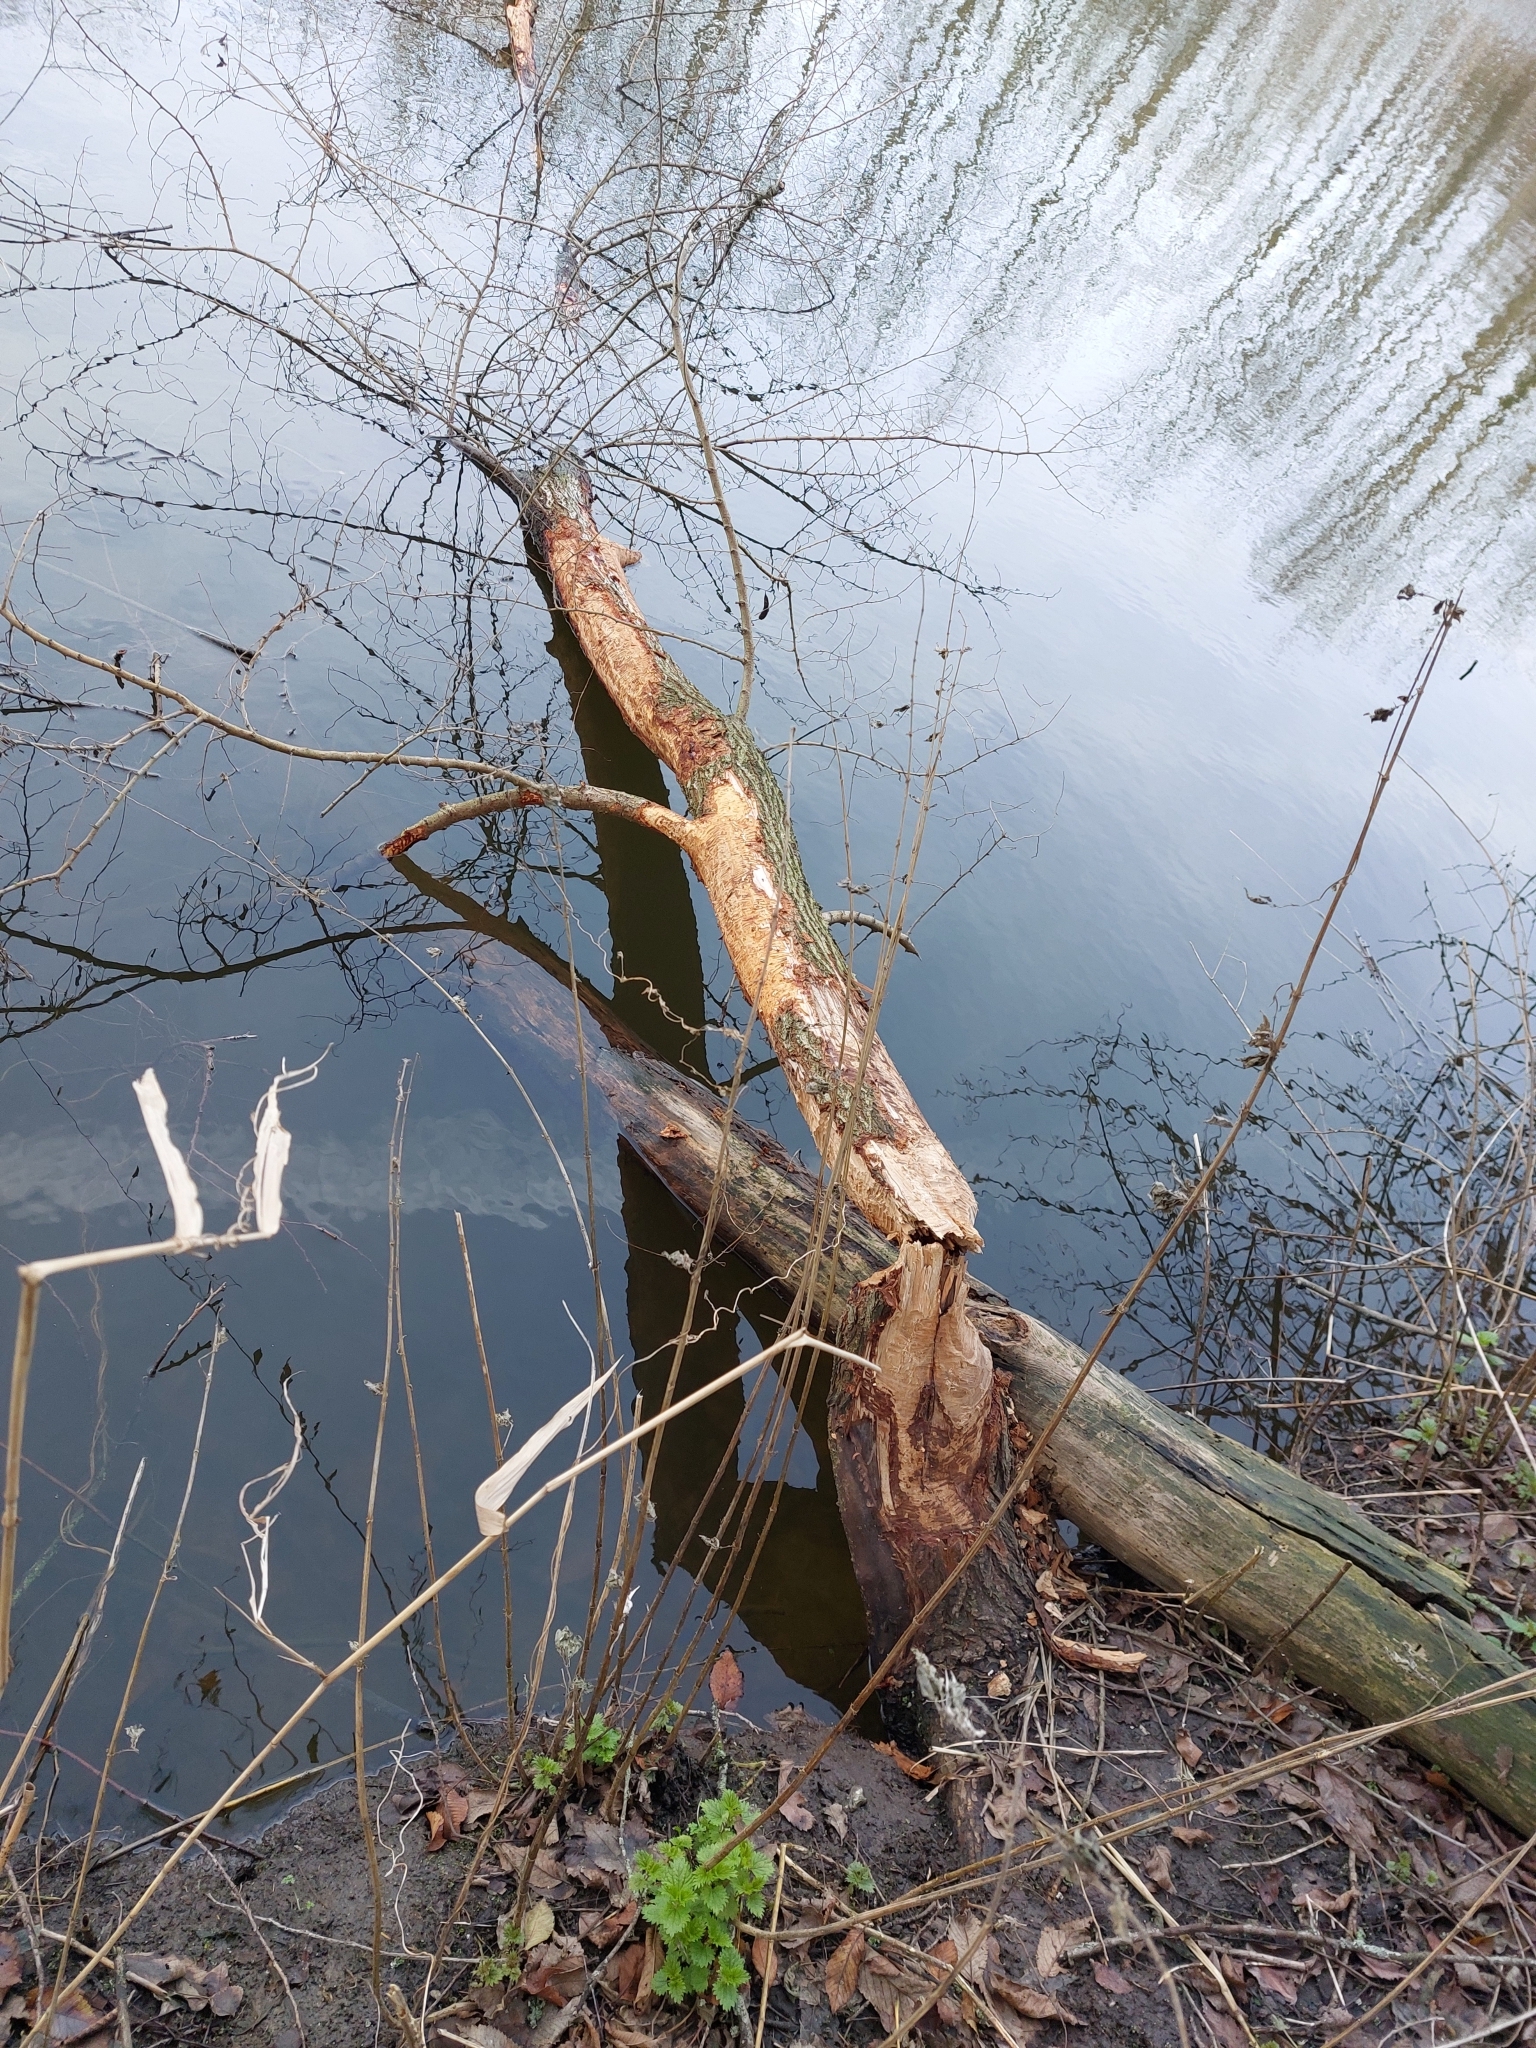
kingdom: Animalia
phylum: Chordata
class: Mammalia
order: Rodentia
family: Castoridae
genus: Castor
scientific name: Castor fiber
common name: Eurasian beaver
